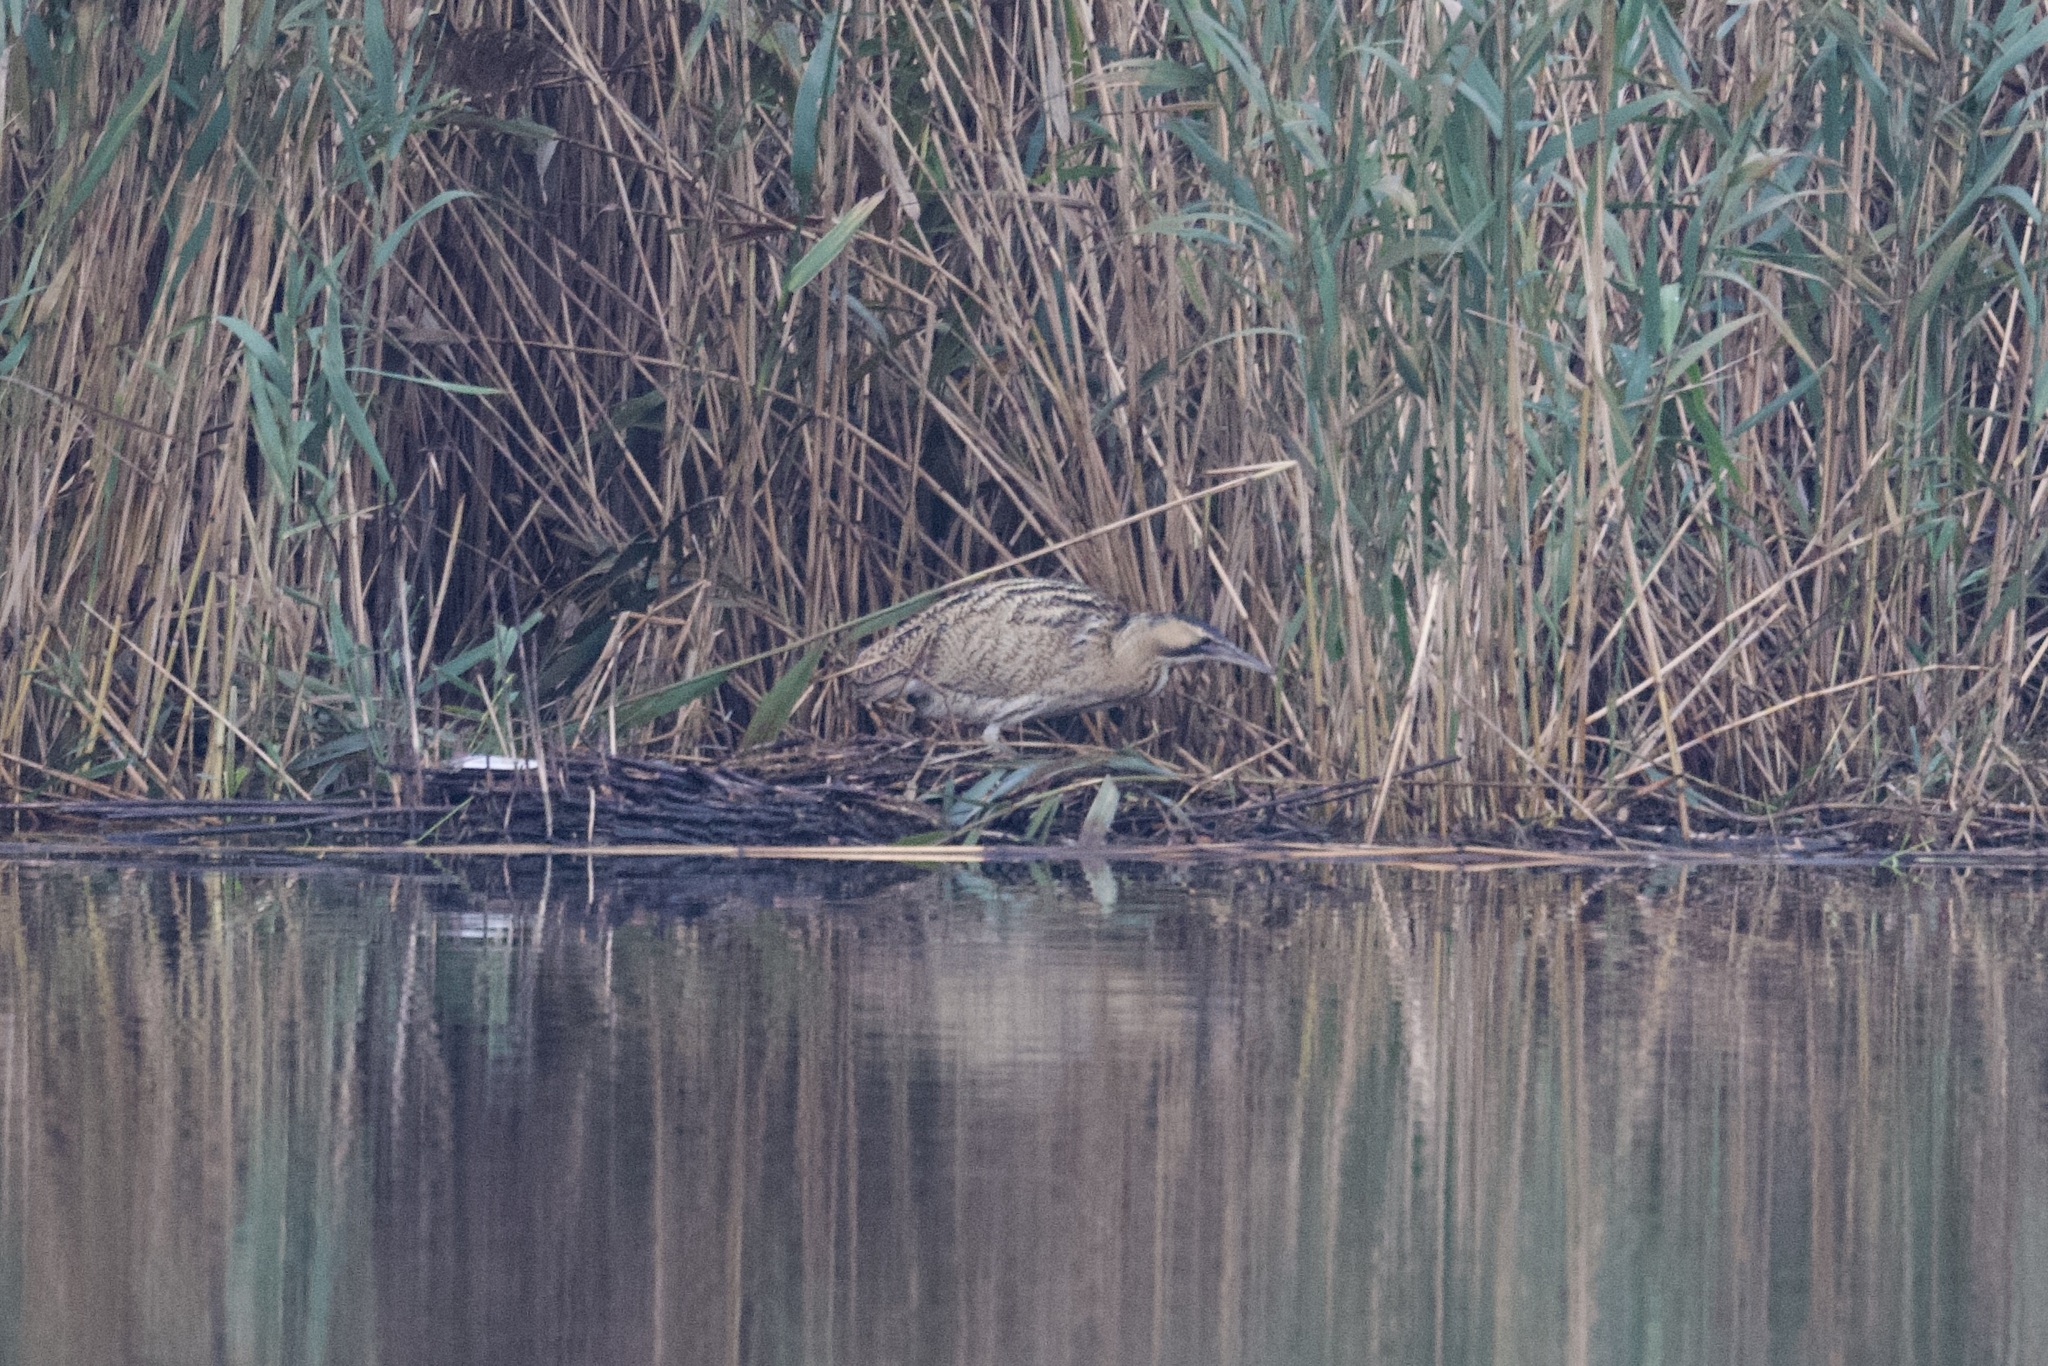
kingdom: Animalia
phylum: Chordata
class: Aves
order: Pelecaniformes
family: Ardeidae
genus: Botaurus
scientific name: Botaurus stellaris
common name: Eurasian bittern
